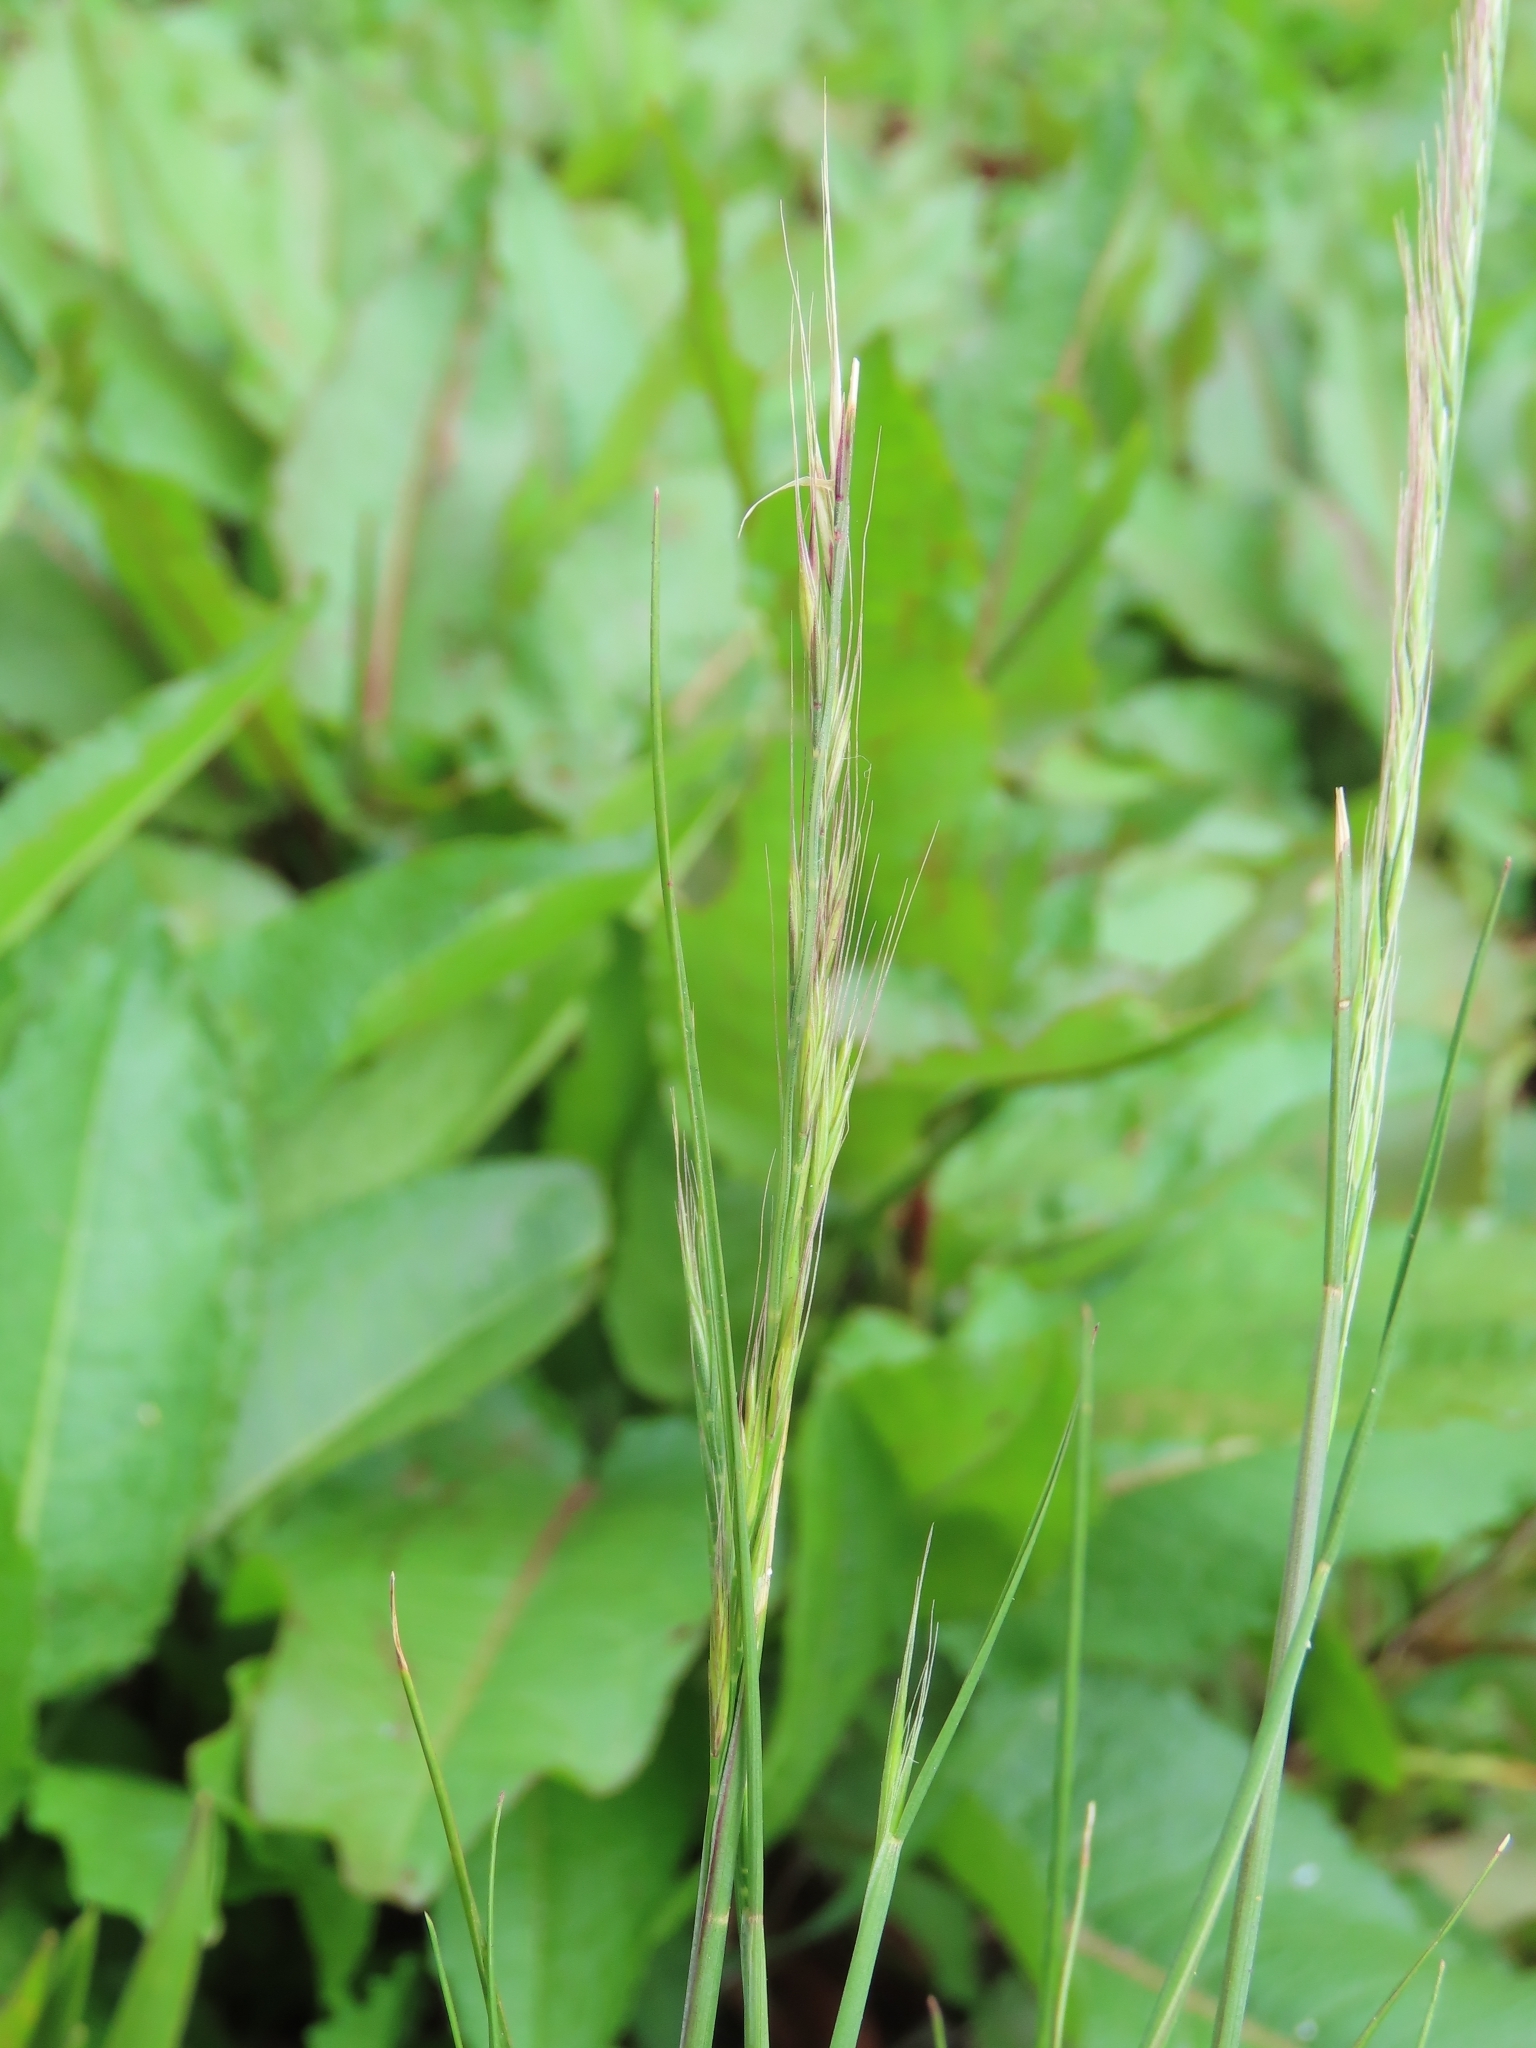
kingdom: Plantae
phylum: Tracheophyta
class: Liliopsida
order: Poales
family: Poaceae
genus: Festuca
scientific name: Festuca myuros
